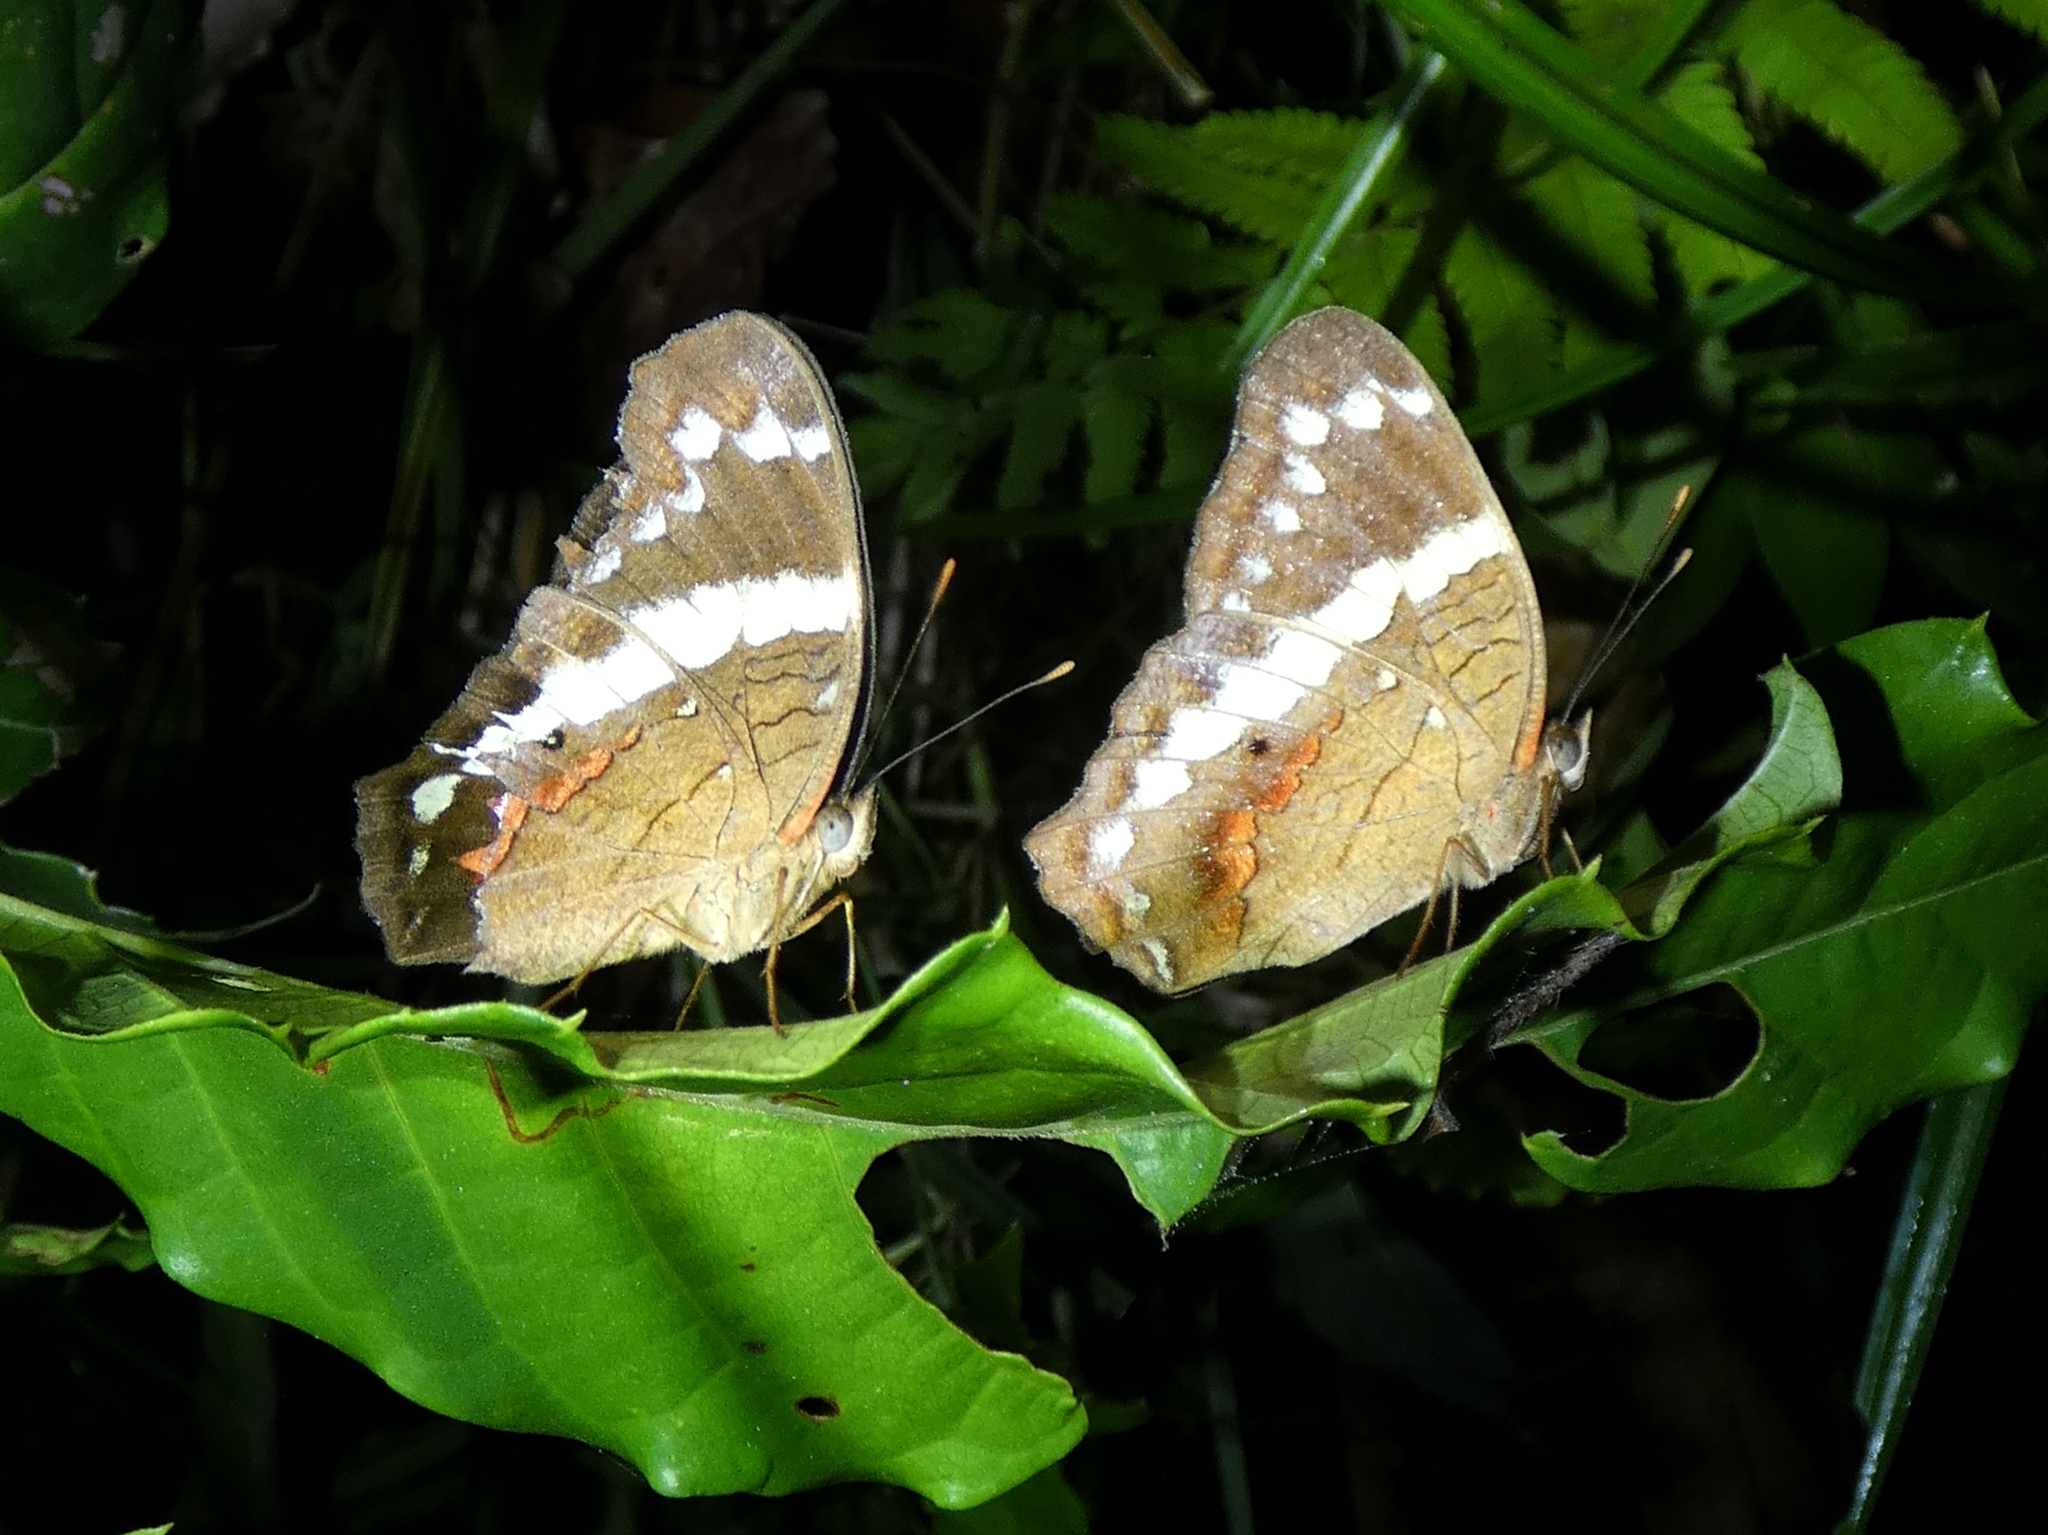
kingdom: Animalia
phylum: Arthropoda
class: Insecta
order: Lepidoptera
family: Nymphalidae
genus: Anartia
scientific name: Anartia fatima
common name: Banded peacock
